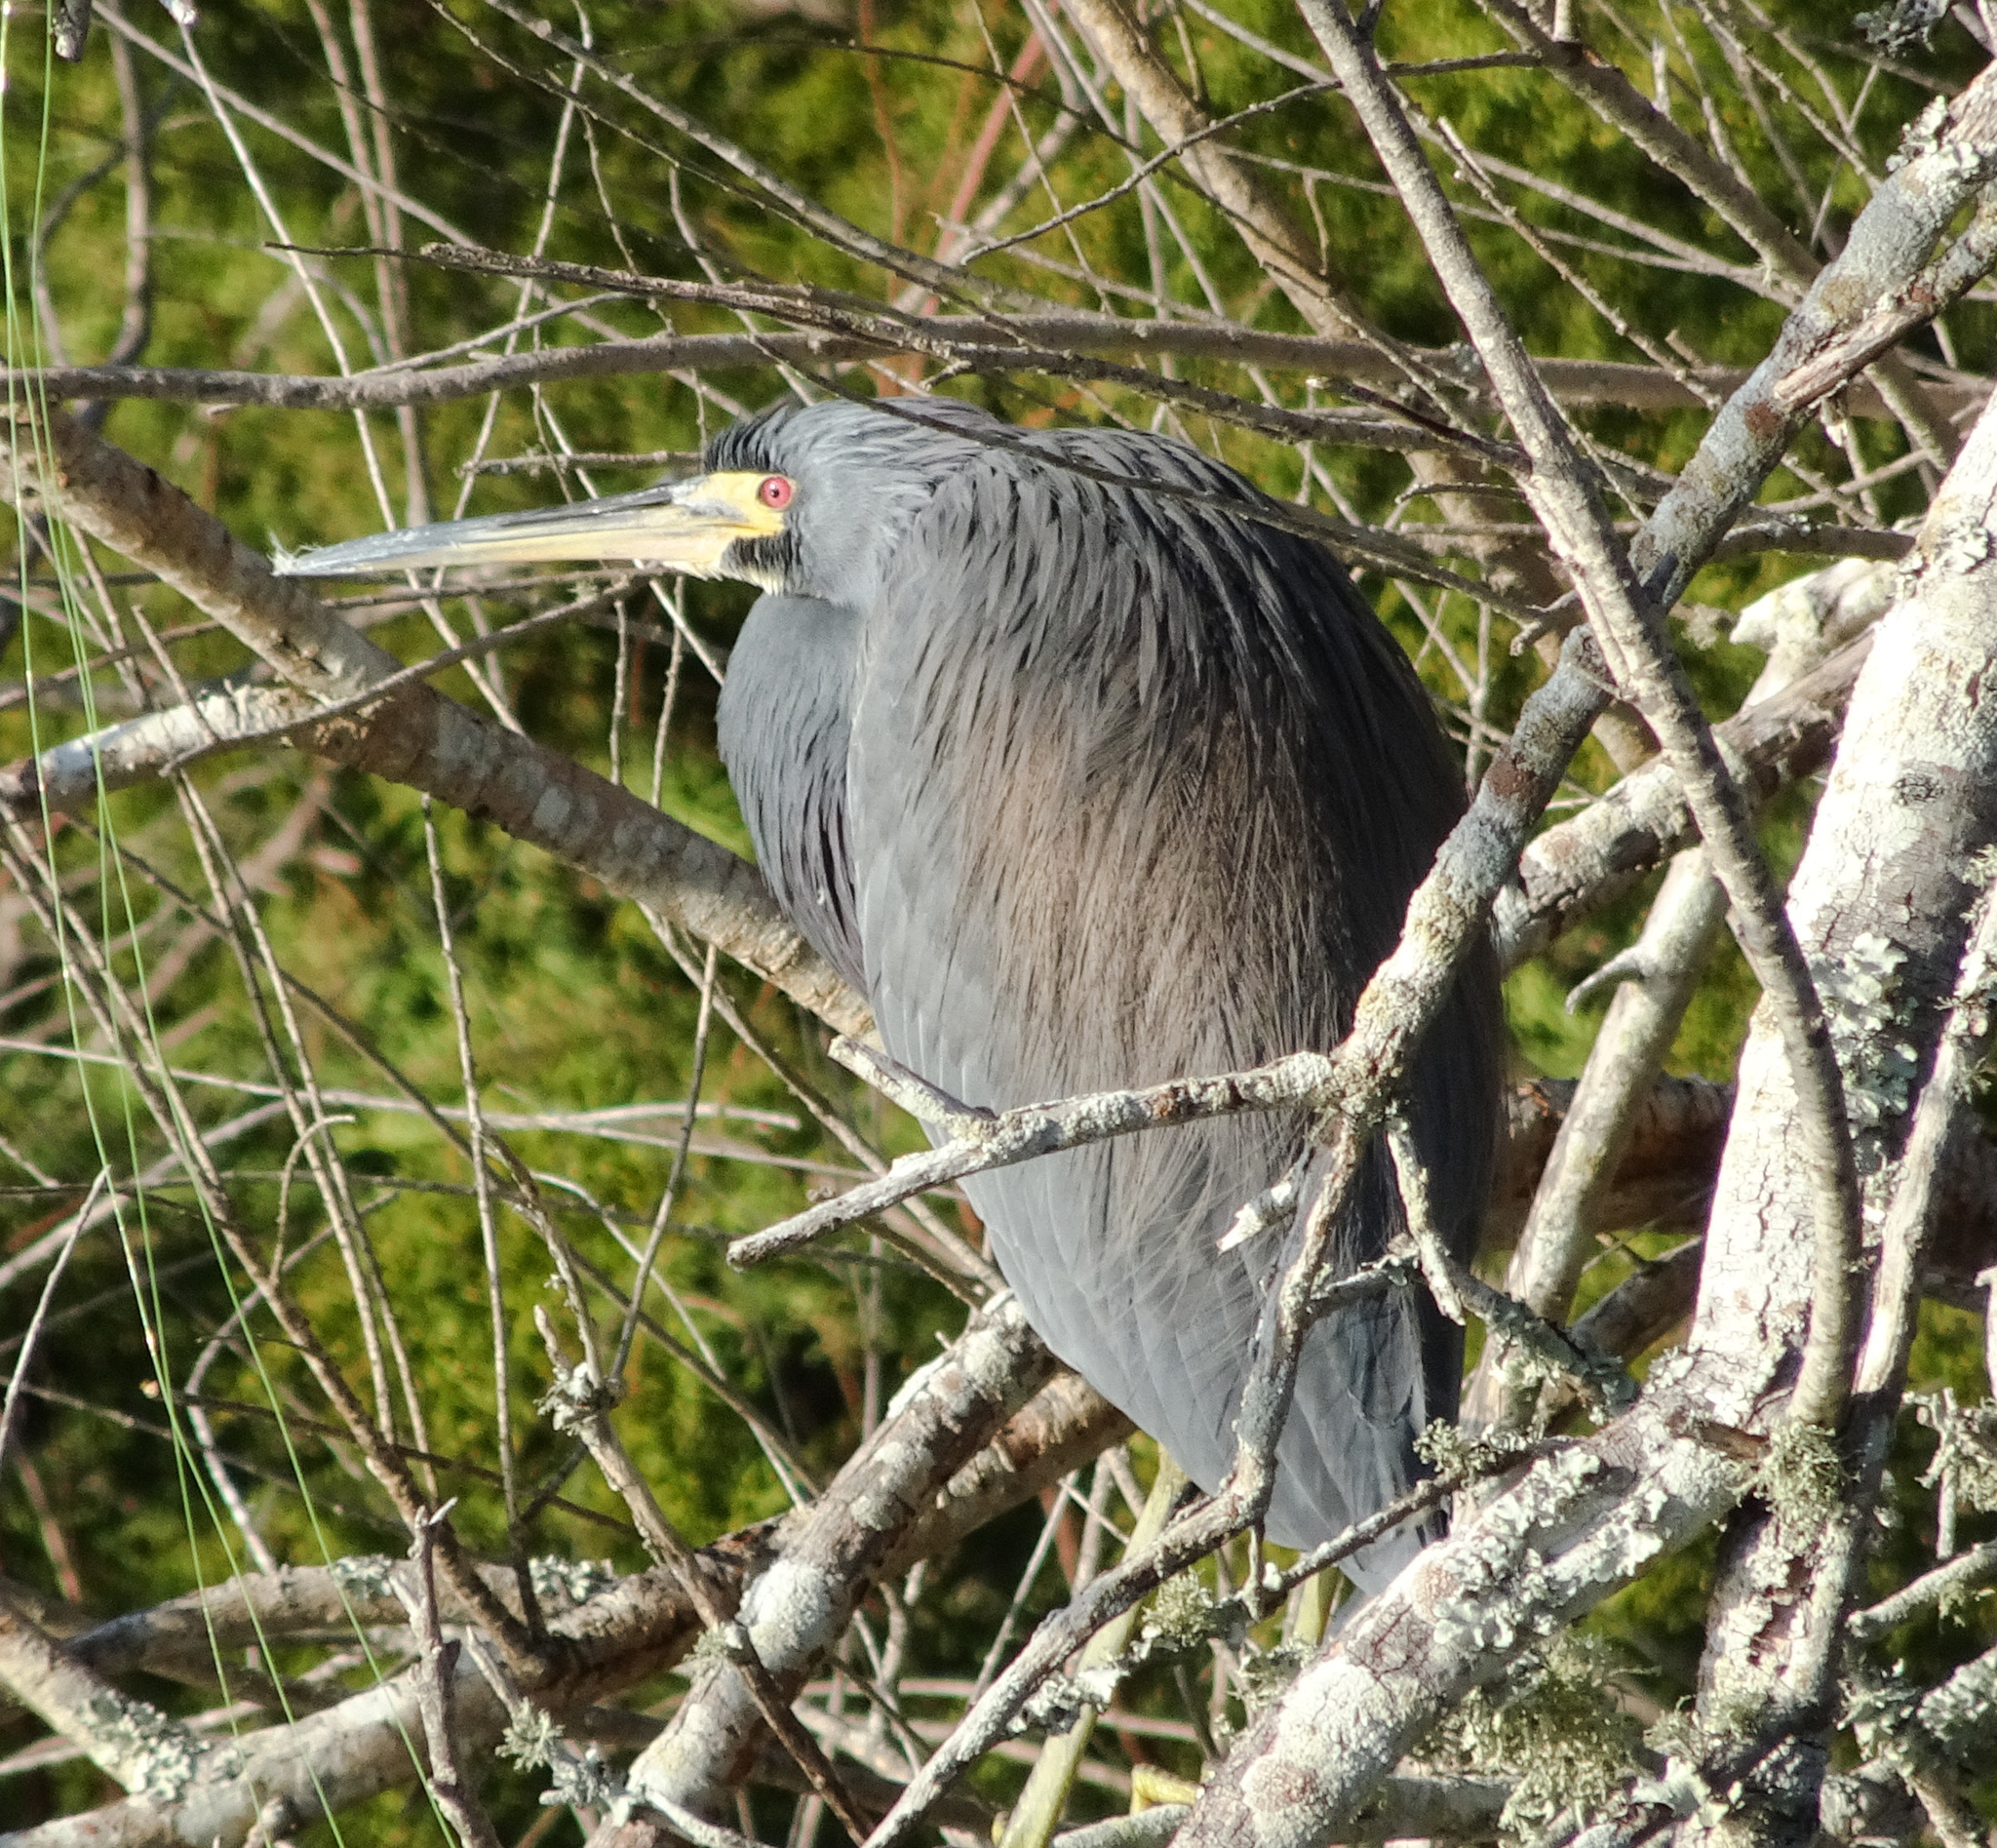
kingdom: Animalia
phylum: Chordata
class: Aves
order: Pelecaniformes
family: Ardeidae
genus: Egretta
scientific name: Egretta tricolor
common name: Tricolored heron
